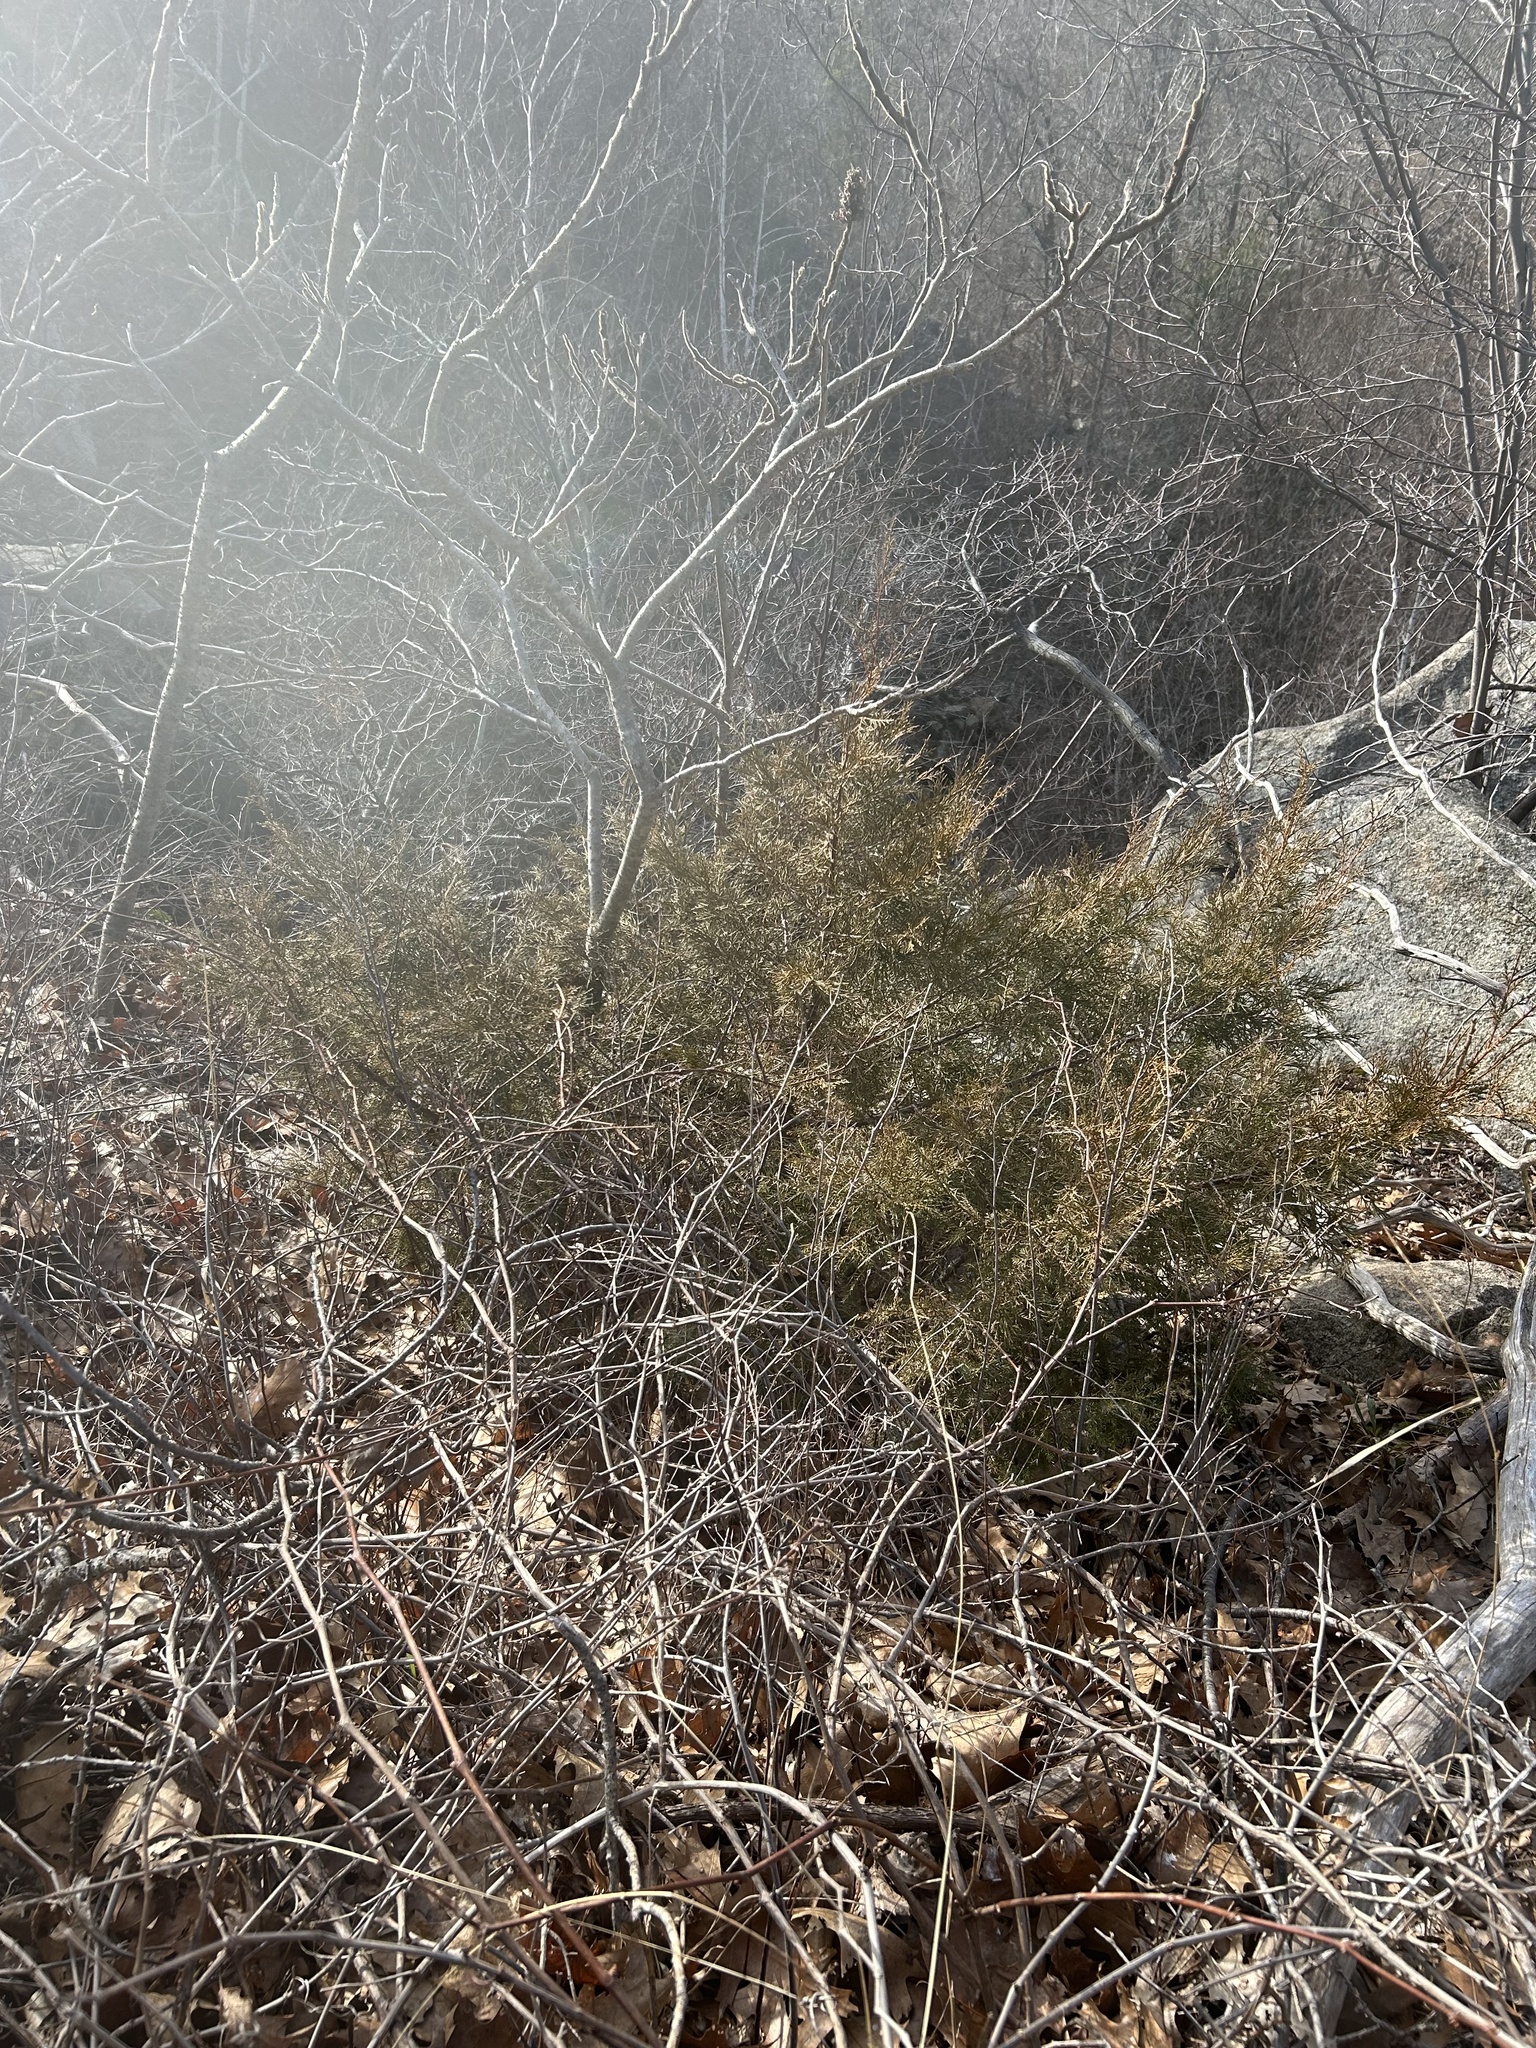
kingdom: Plantae
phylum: Tracheophyta
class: Pinopsida
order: Pinales
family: Cupressaceae
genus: Juniperus
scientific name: Juniperus communis
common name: Common juniper
